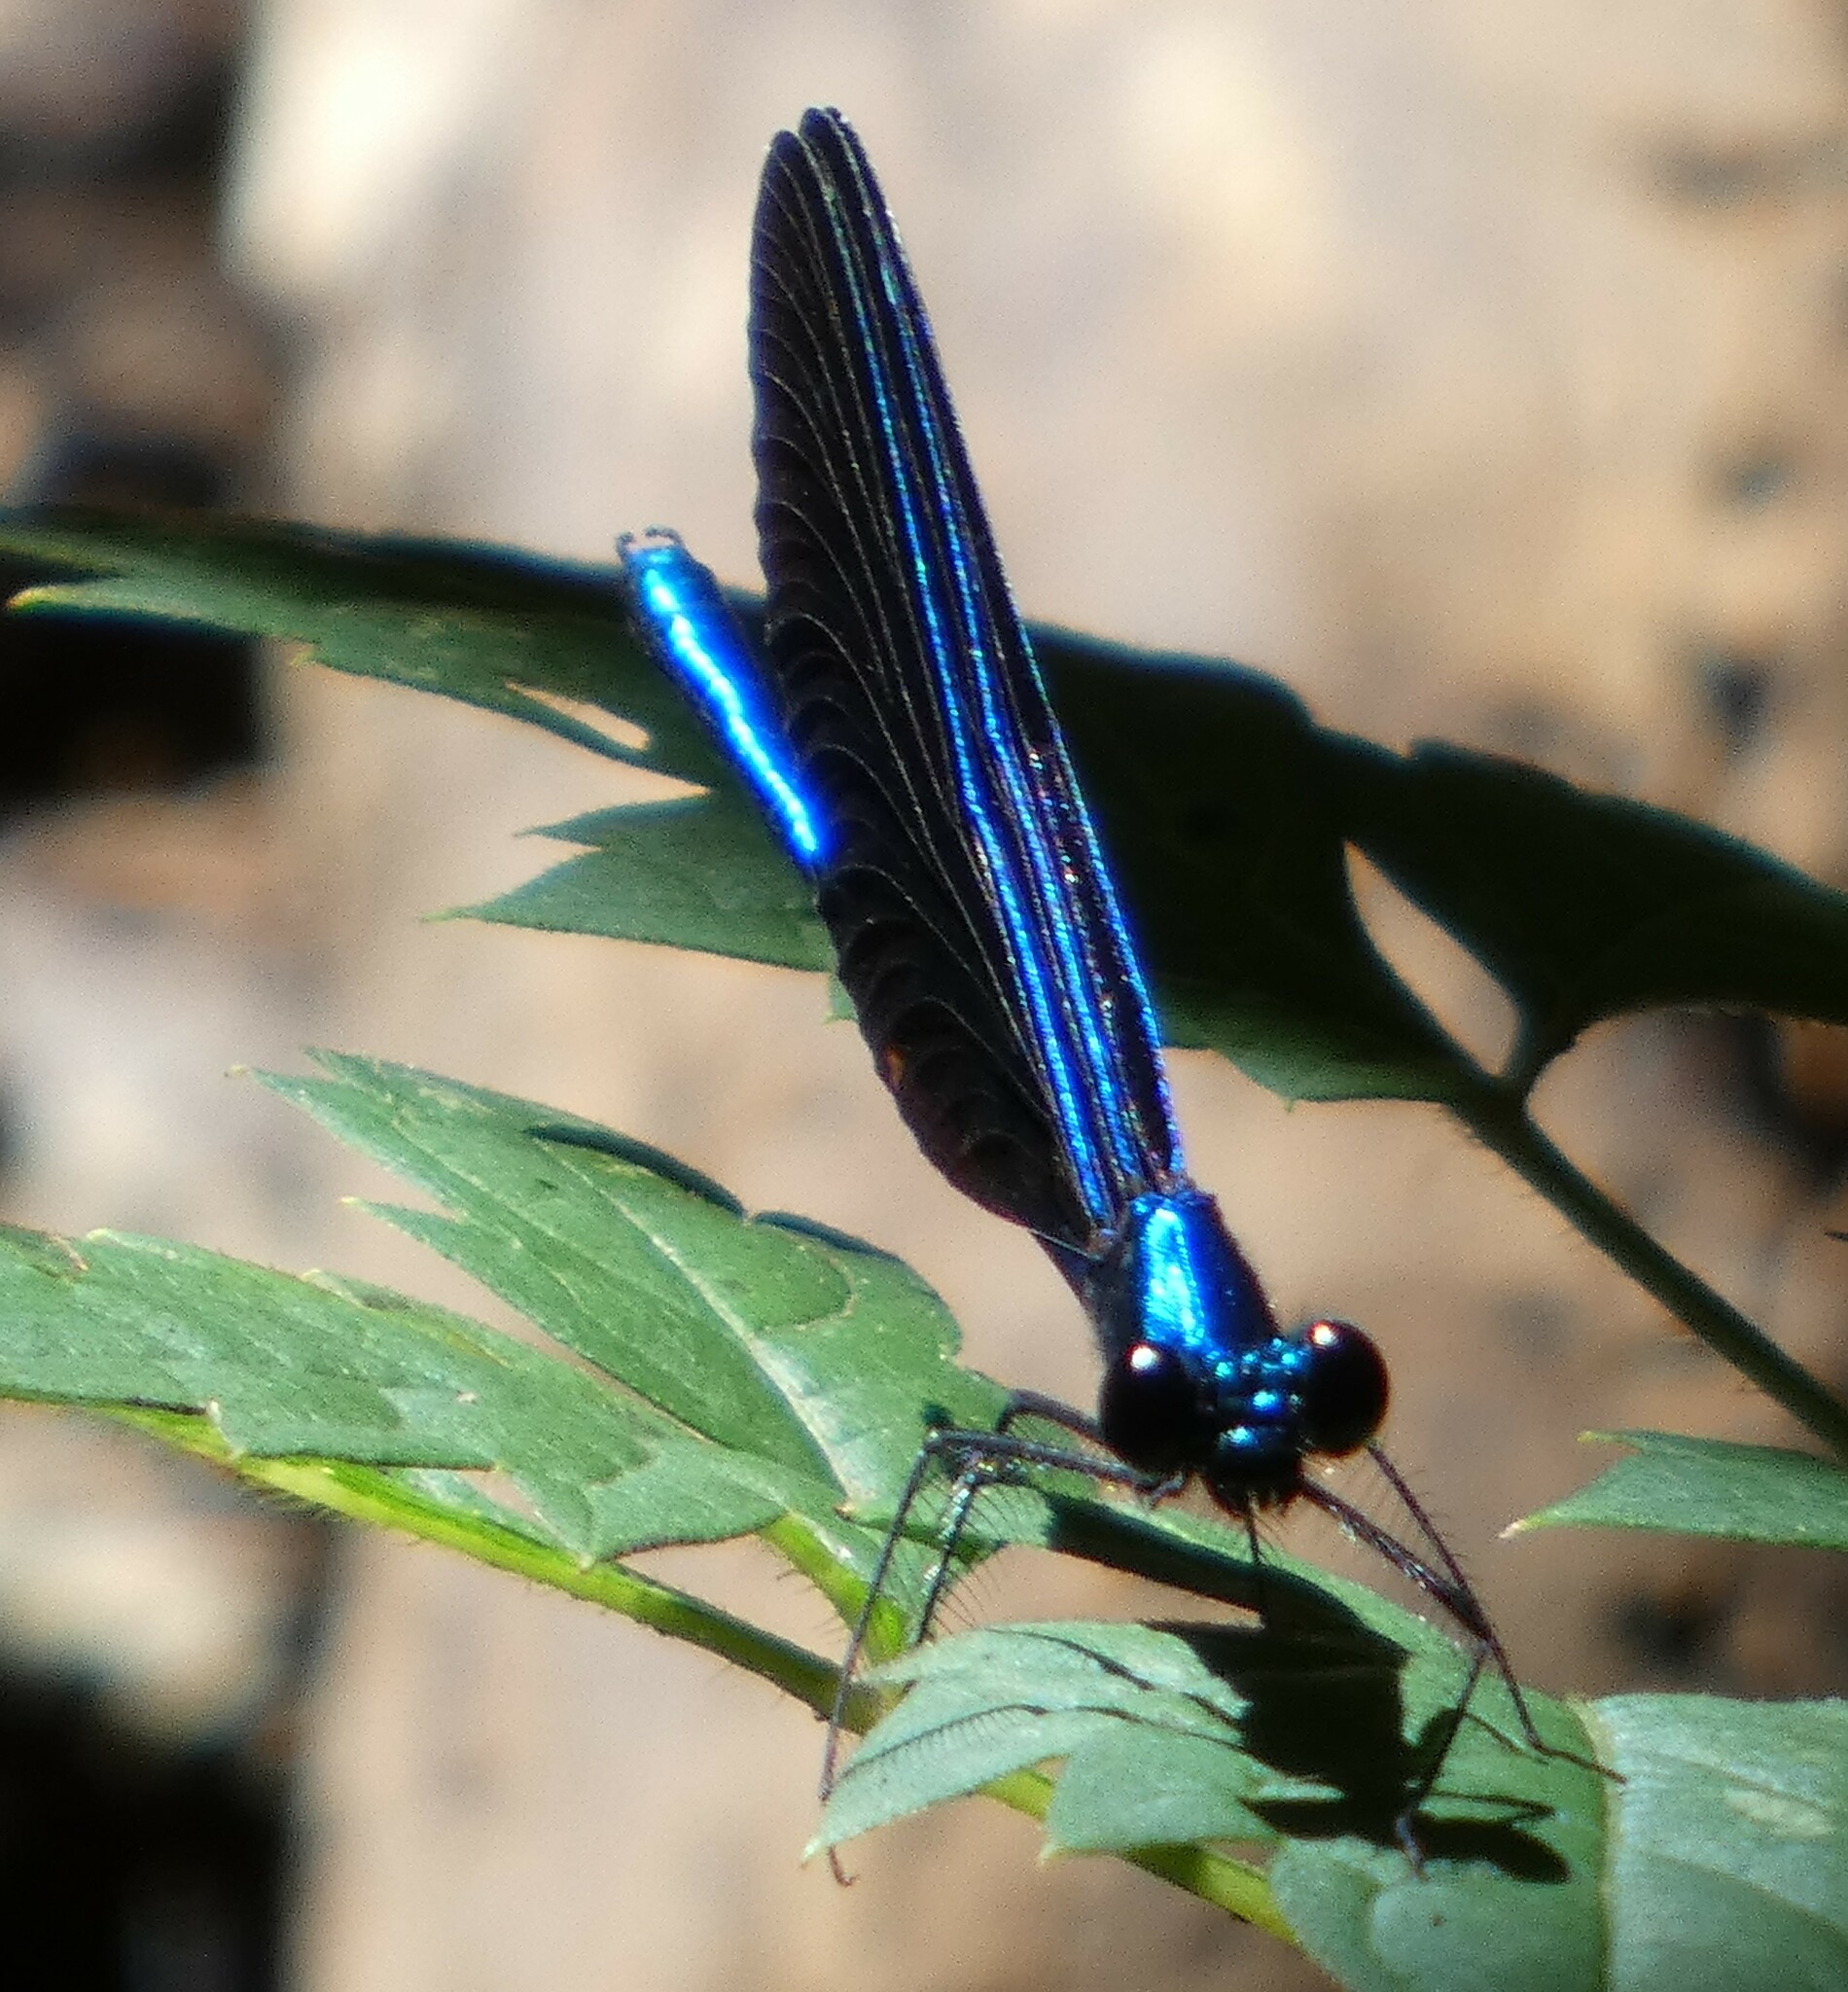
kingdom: Animalia
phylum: Arthropoda
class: Insecta
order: Odonata
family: Calopterygidae
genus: Calopteryx
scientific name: Calopteryx maculata
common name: Ebony jewelwing
